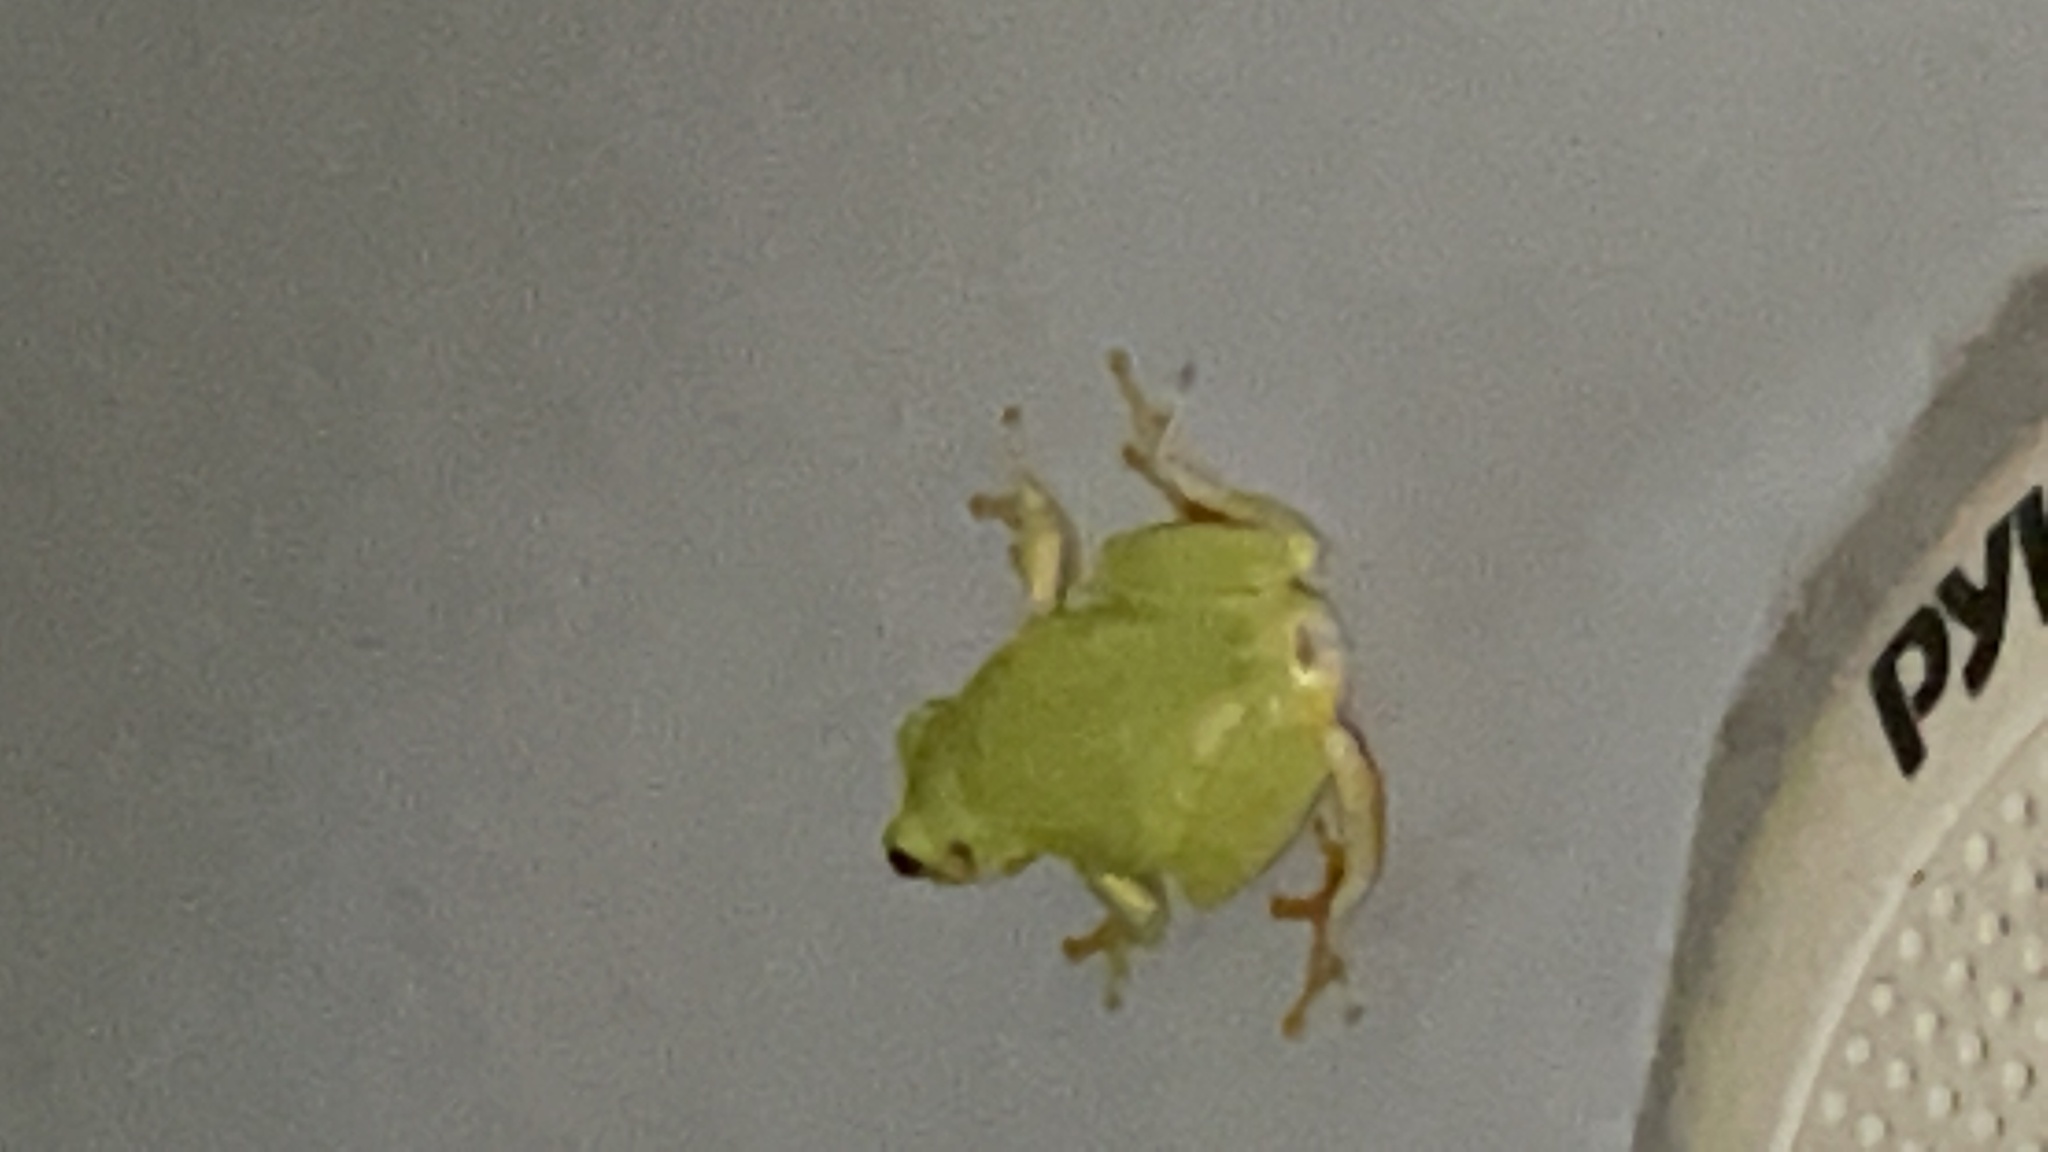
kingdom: Animalia
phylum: Chordata
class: Amphibia
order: Anura
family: Hylidae
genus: Dryophytes
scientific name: Dryophytes squirellus
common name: Squirrel treefrog
